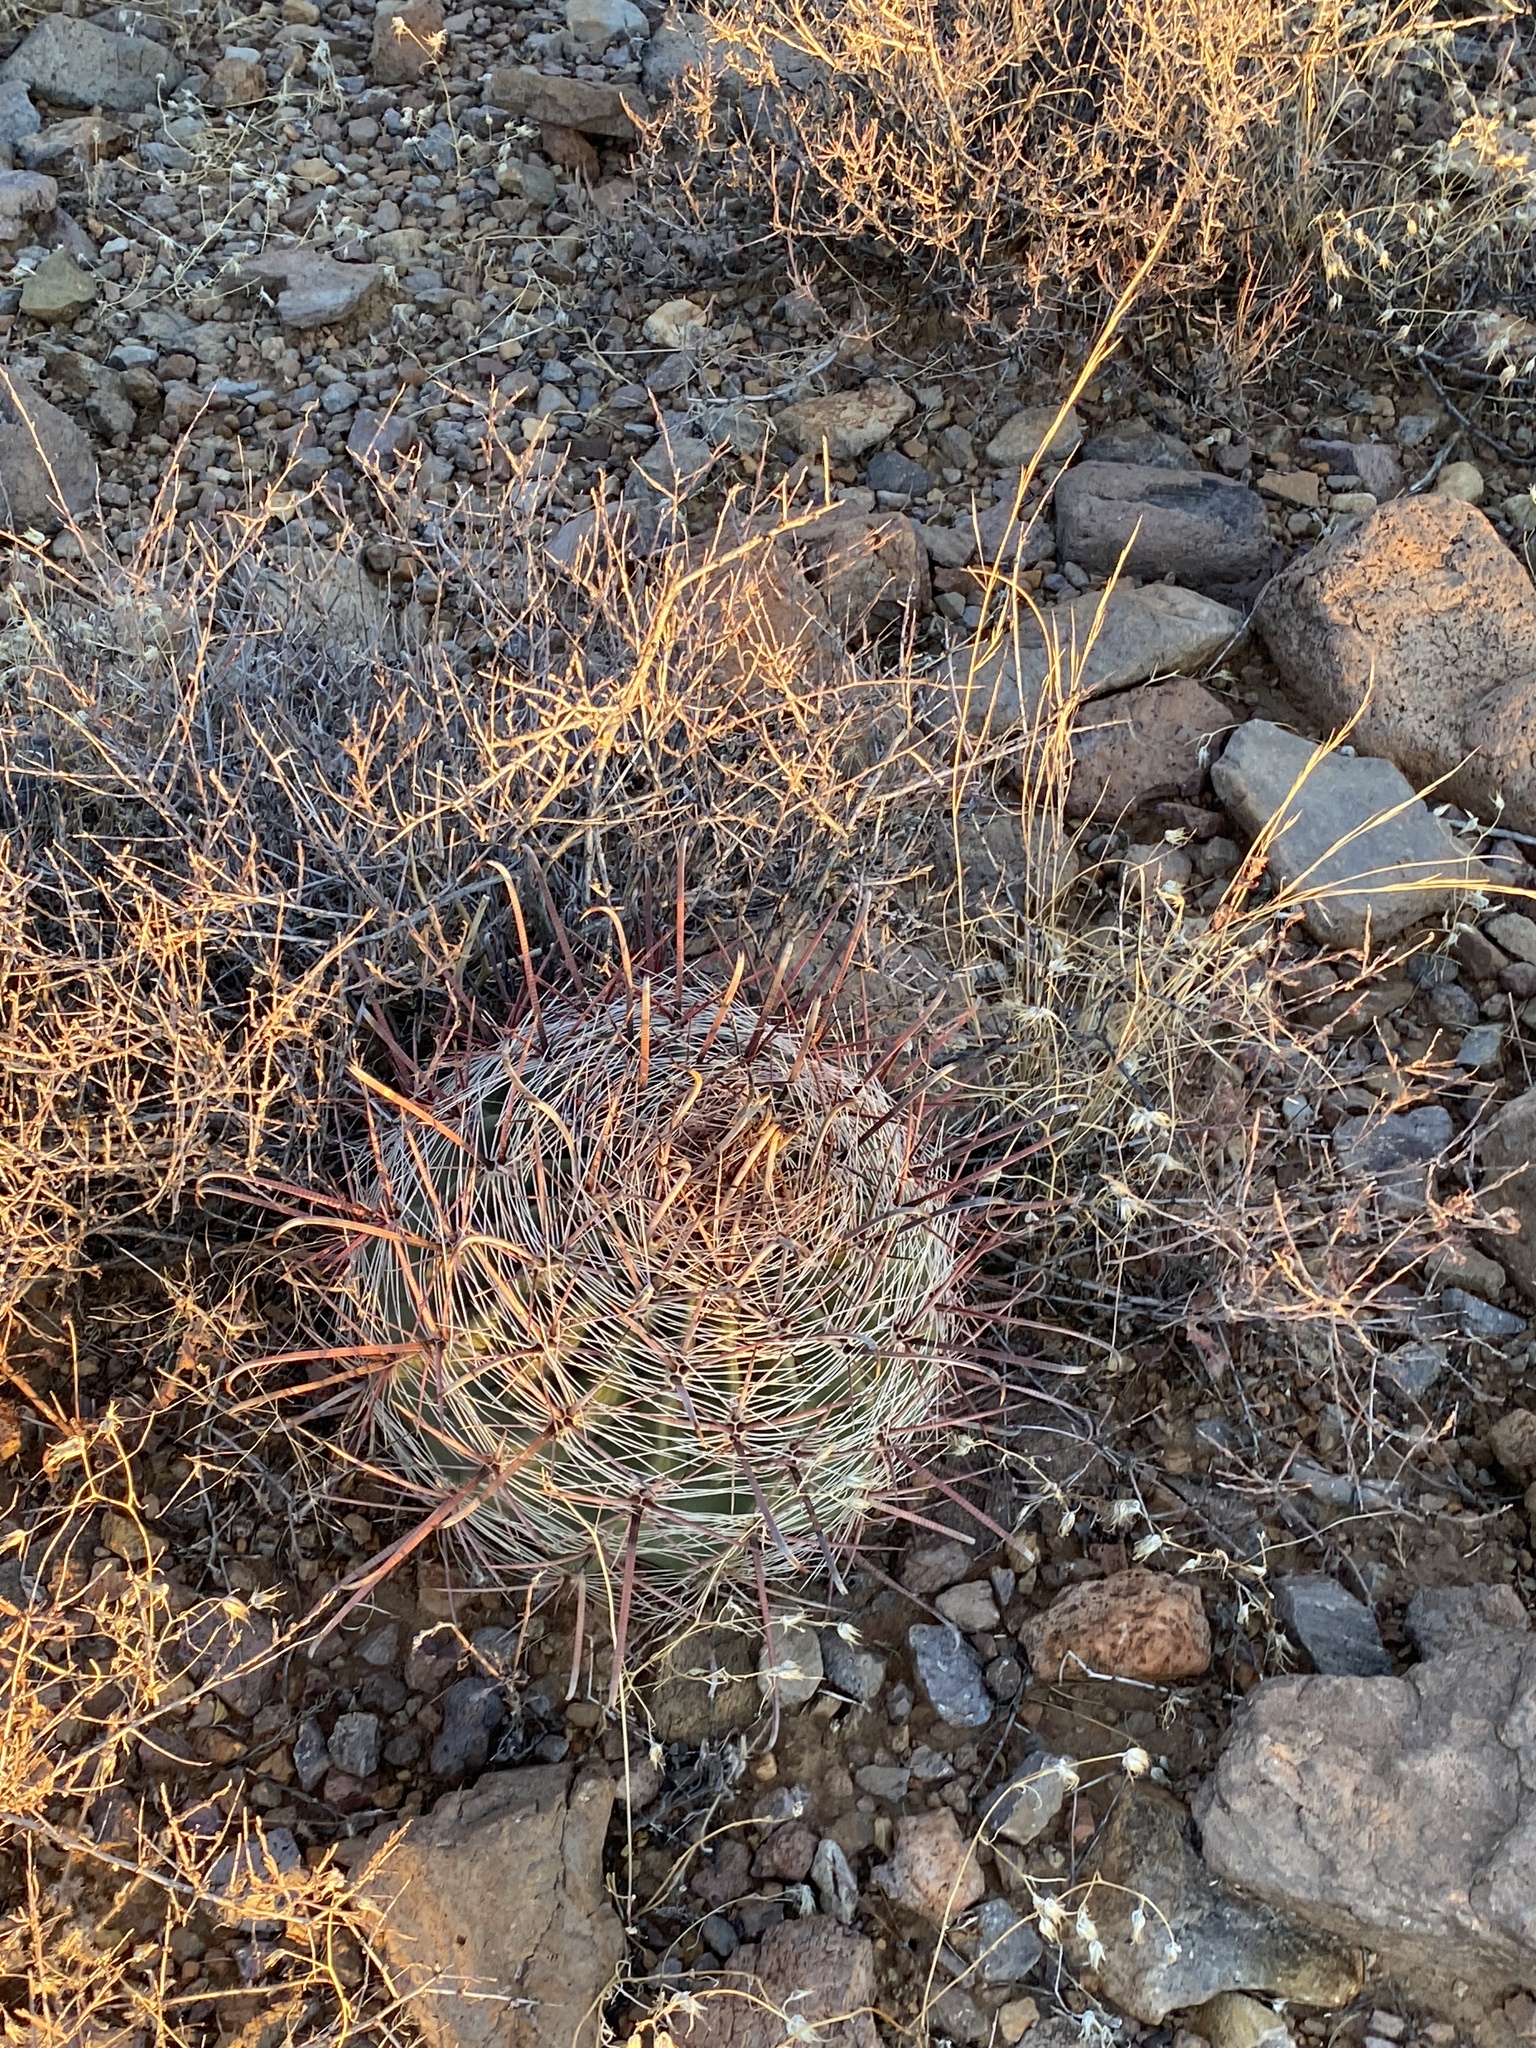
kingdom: Plantae
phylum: Tracheophyta
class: Magnoliopsida
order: Caryophyllales
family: Cactaceae
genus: Ferocactus
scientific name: Ferocactus wislizeni
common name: Candy barrel cactus
